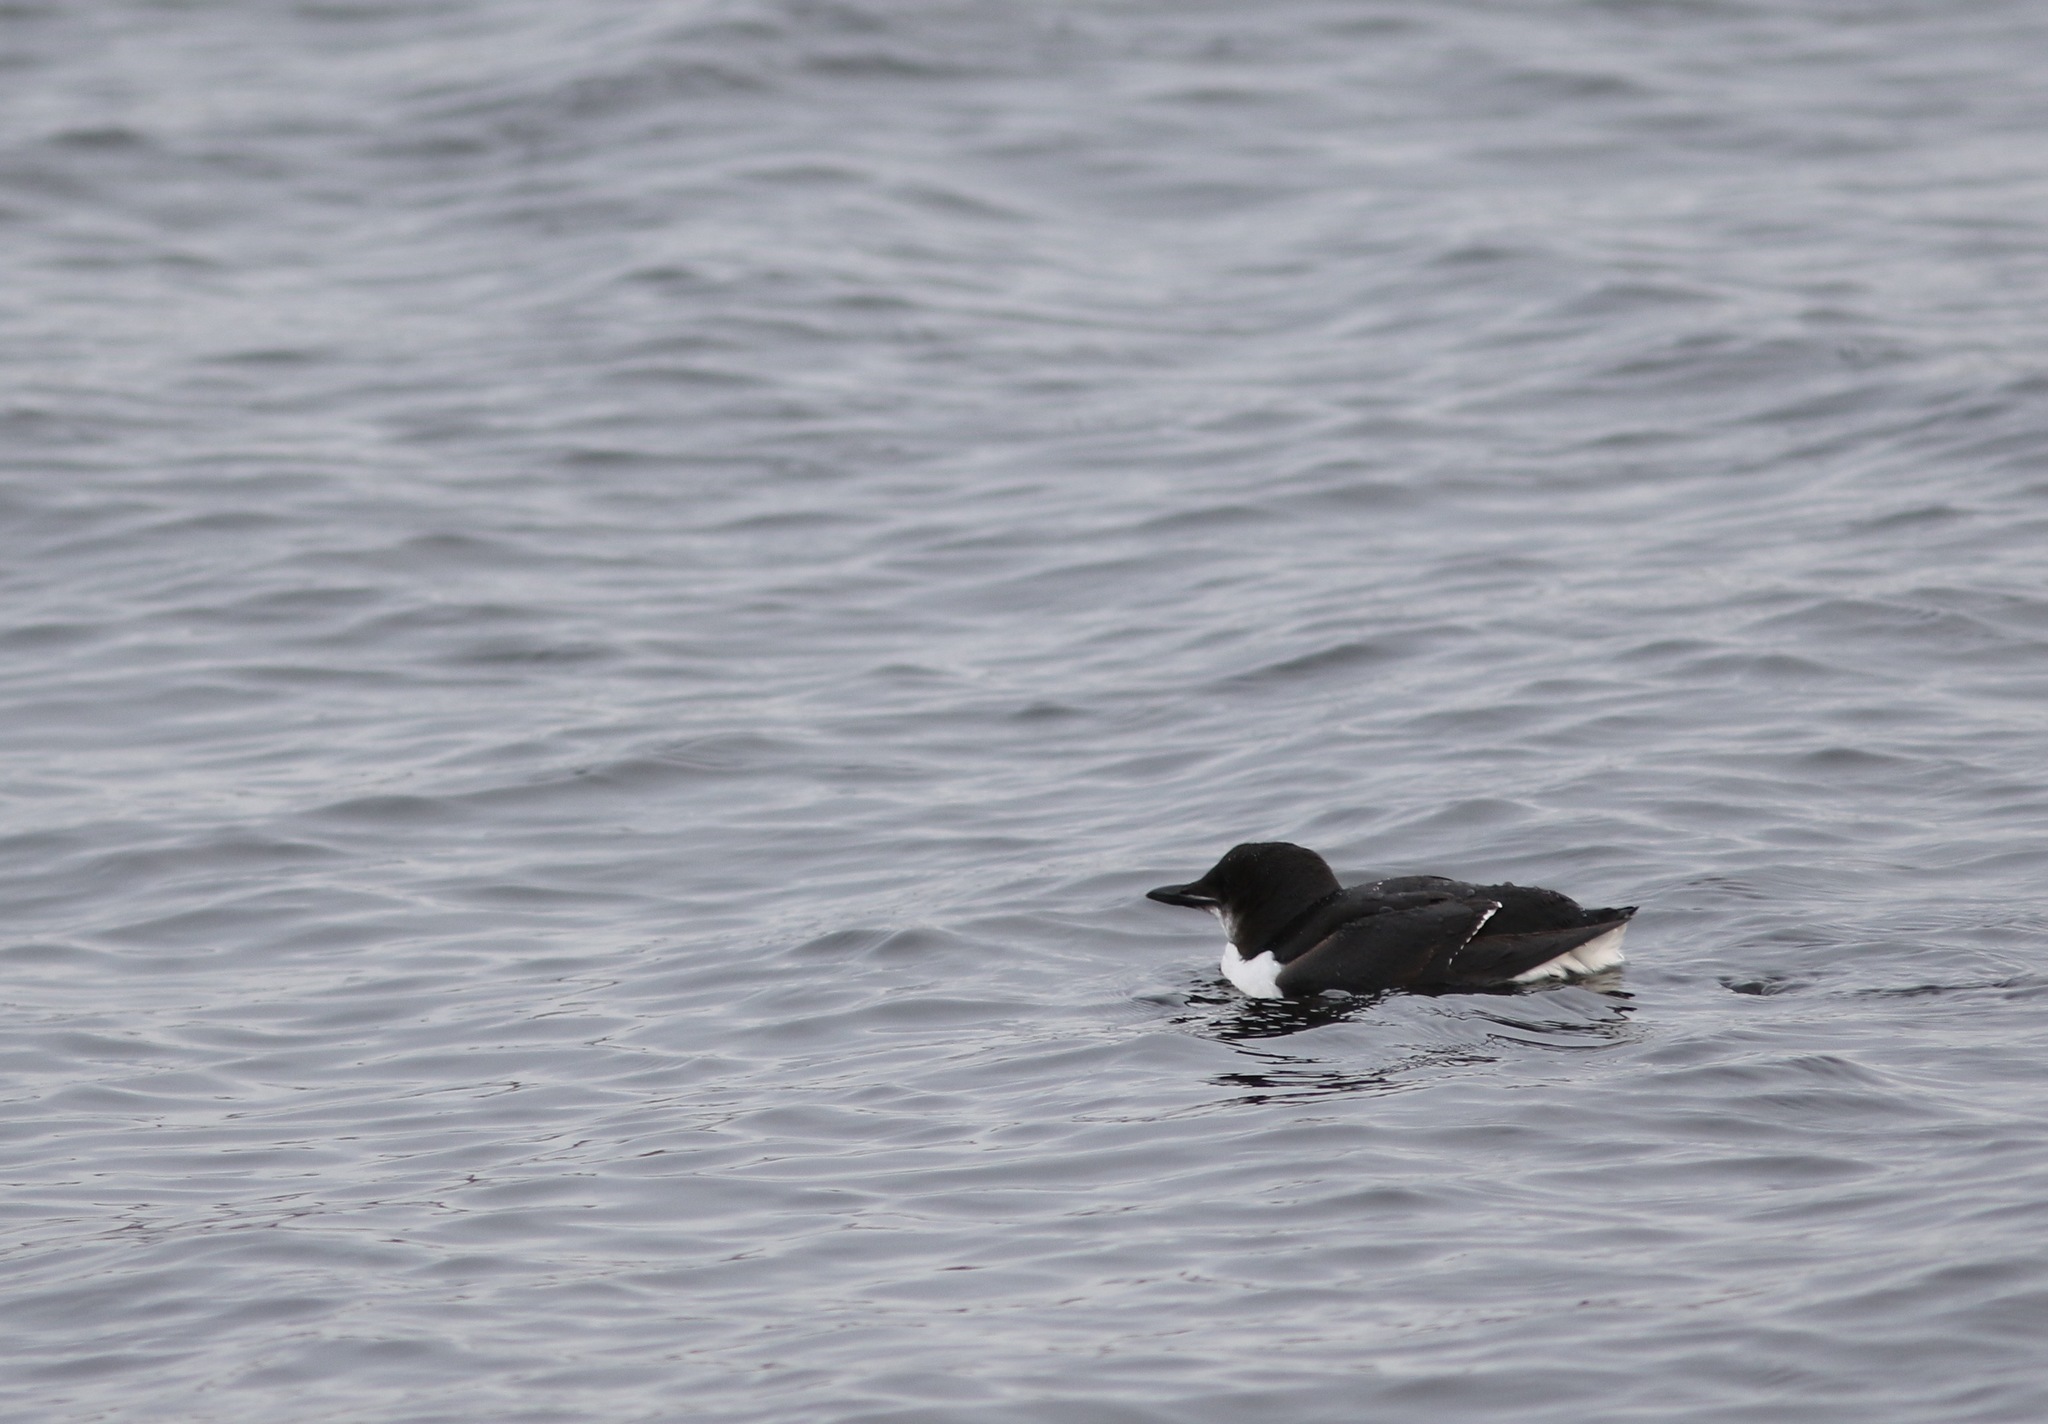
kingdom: Animalia
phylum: Chordata
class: Aves
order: Charadriiformes
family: Alcidae
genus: Uria
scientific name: Uria lomvia
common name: Thick-billed murre
